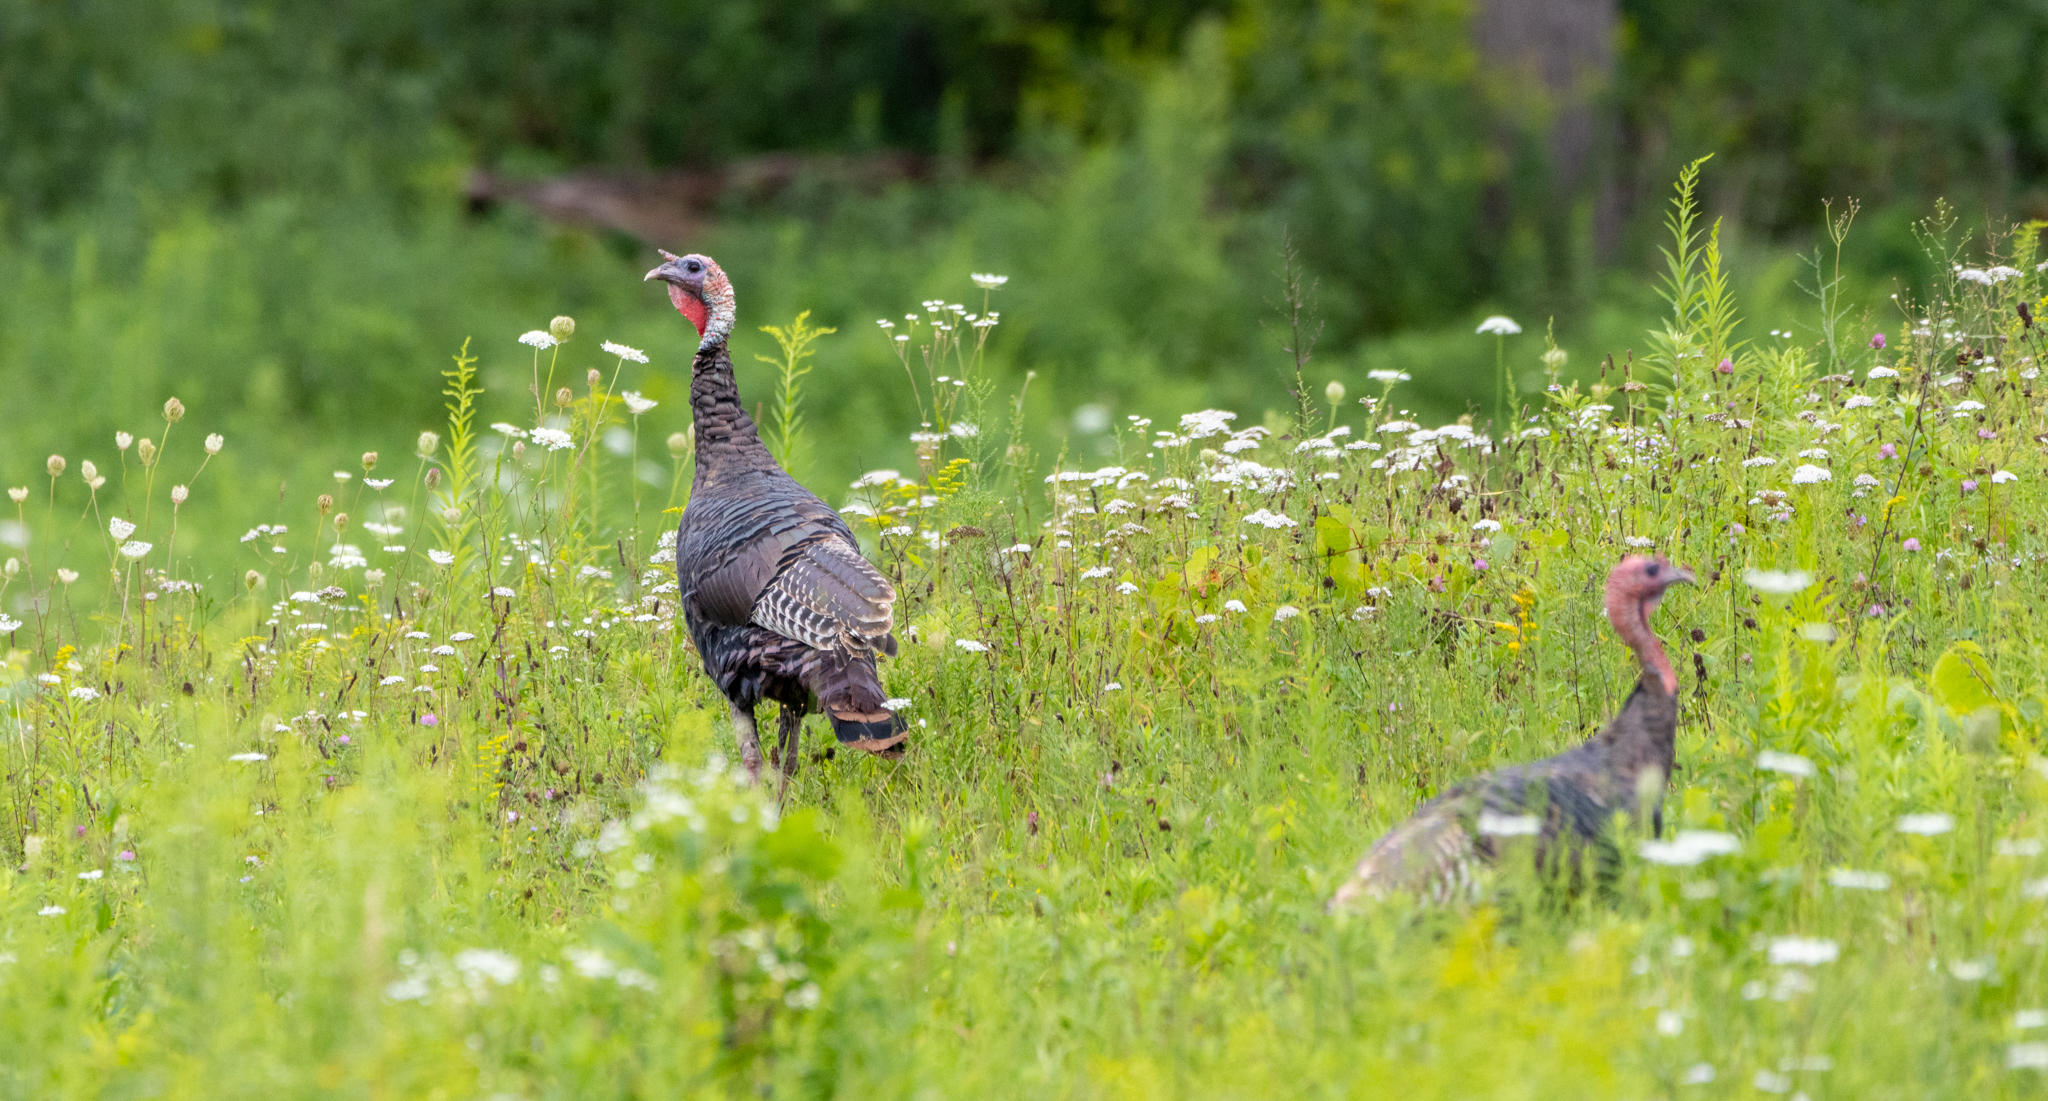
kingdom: Animalia
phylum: Chordata
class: Aves
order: Galliformes
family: Phasianidae
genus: Meleagris
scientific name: Meleagris gallopavo
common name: Wild turkey
